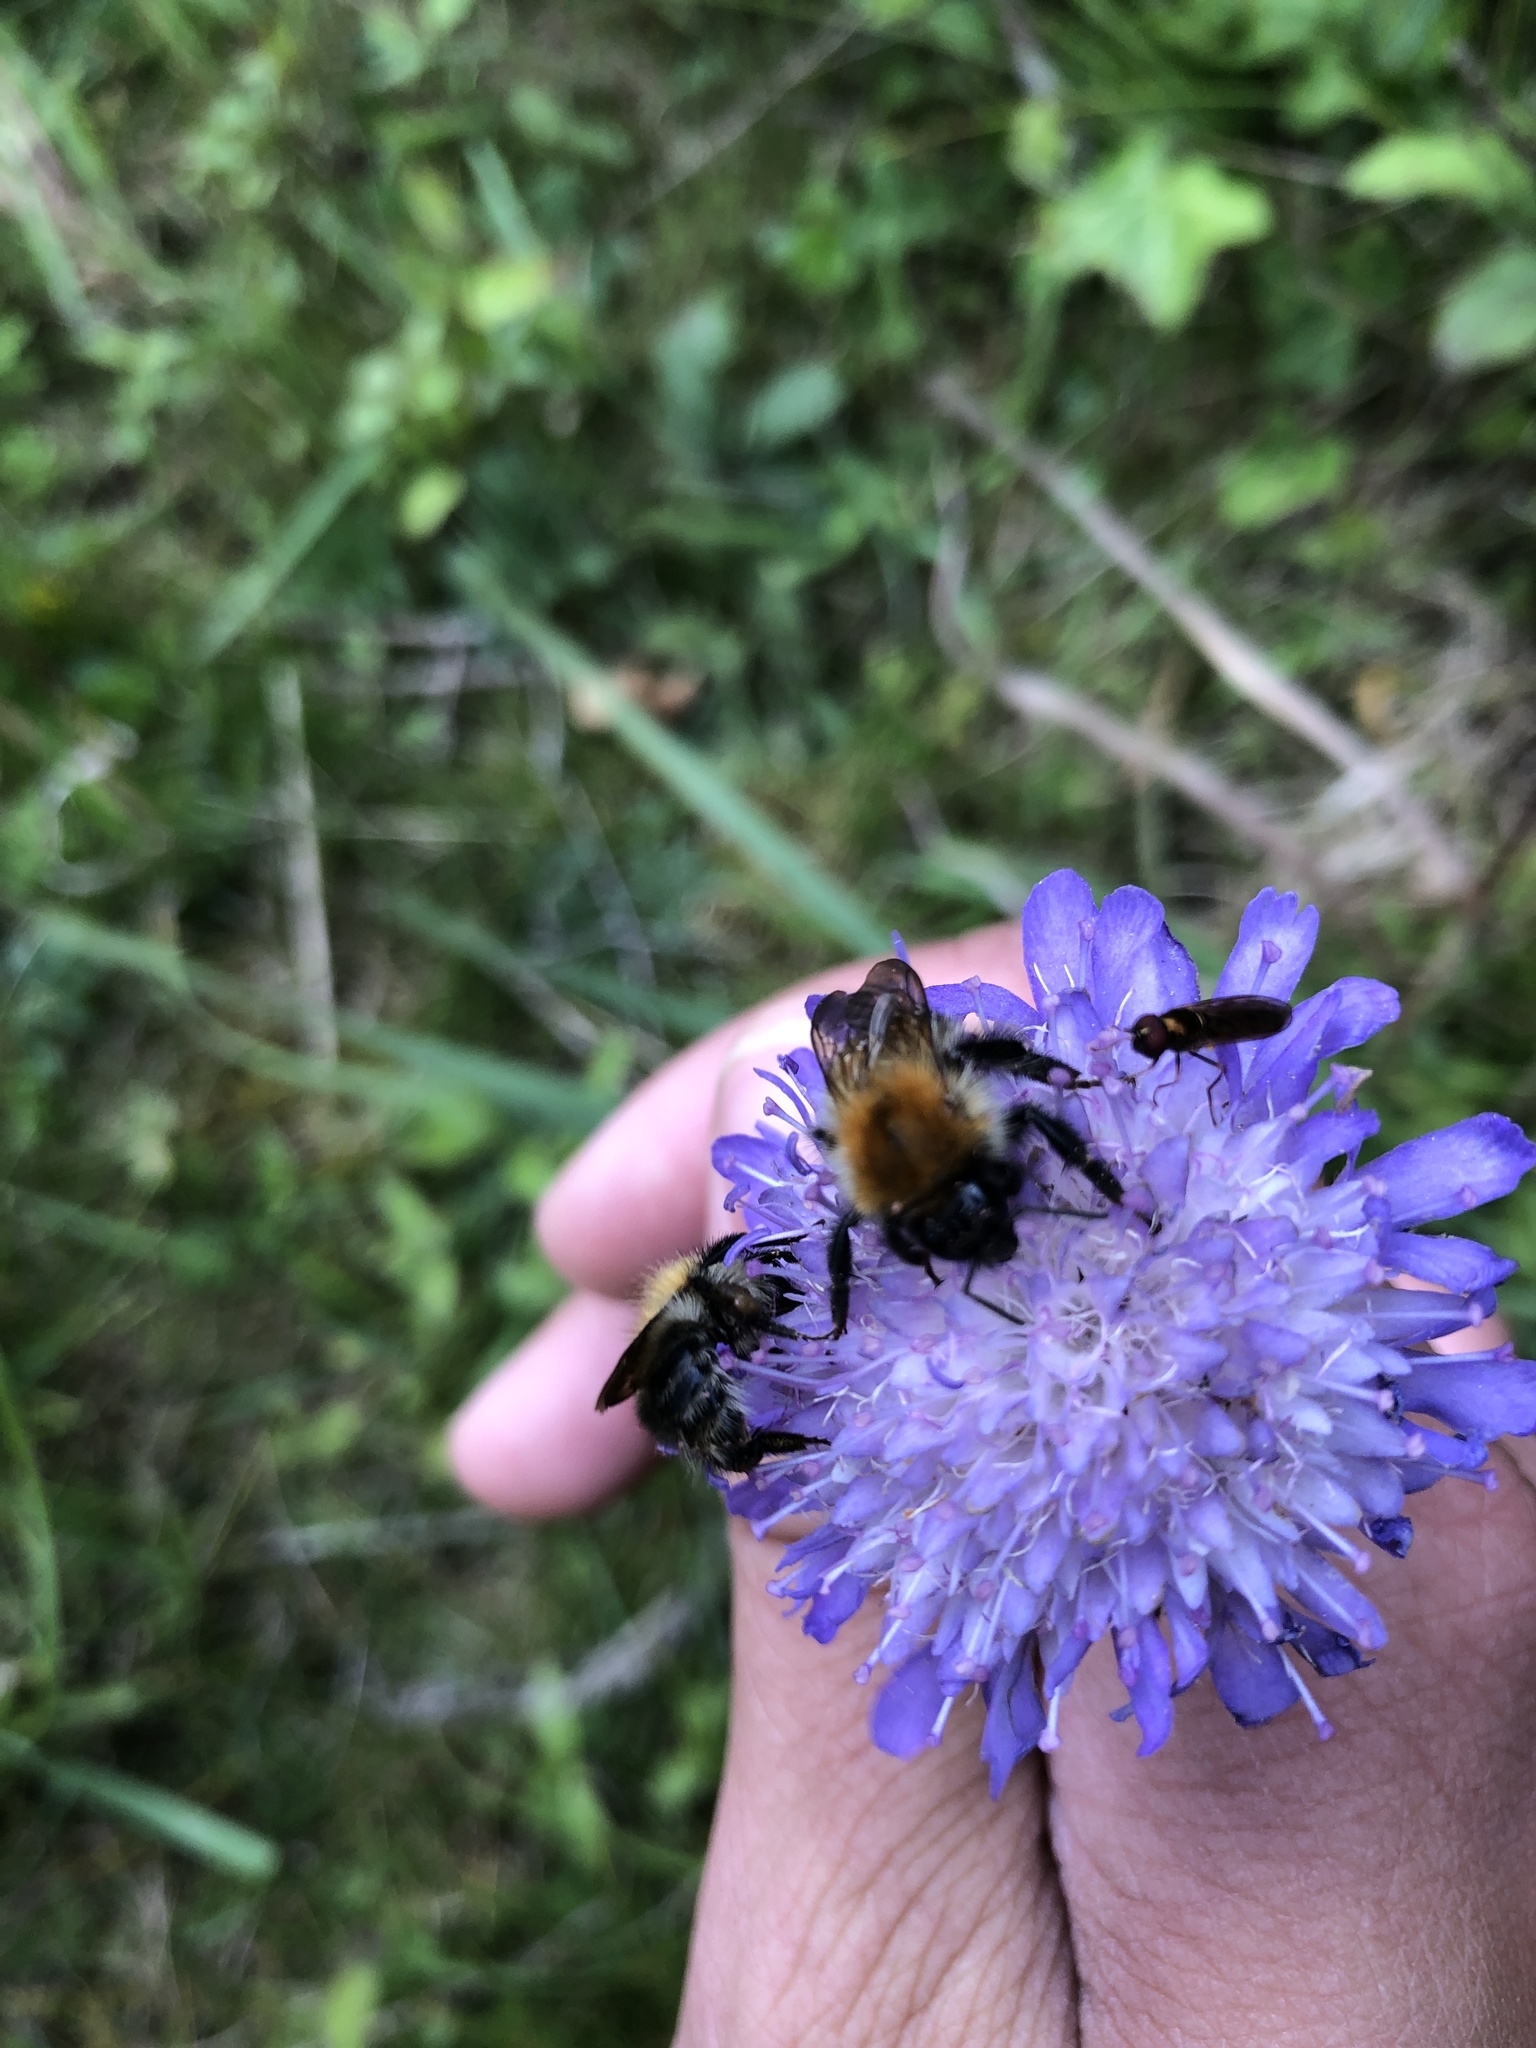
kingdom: Plantae
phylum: Tracheophyta
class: Magnoliopsida
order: Dipsacales
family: Caprifoliaceae
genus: Knautia
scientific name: Knautia arvensis
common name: Field scabiosa
